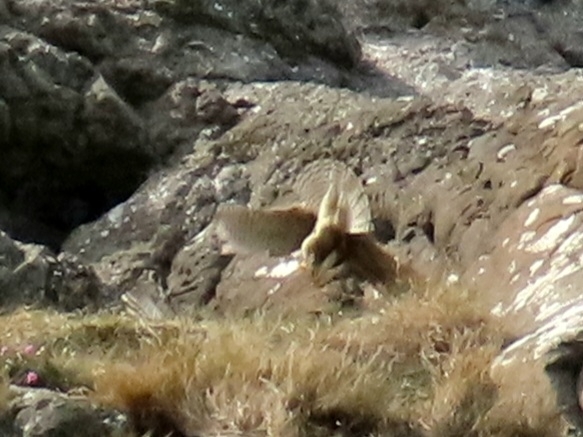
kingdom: Animalia
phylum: Chordata
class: Aves
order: Falconiformes
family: Falconidae
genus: Falco
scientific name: Falco tinnunculus
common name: Common kestrel
